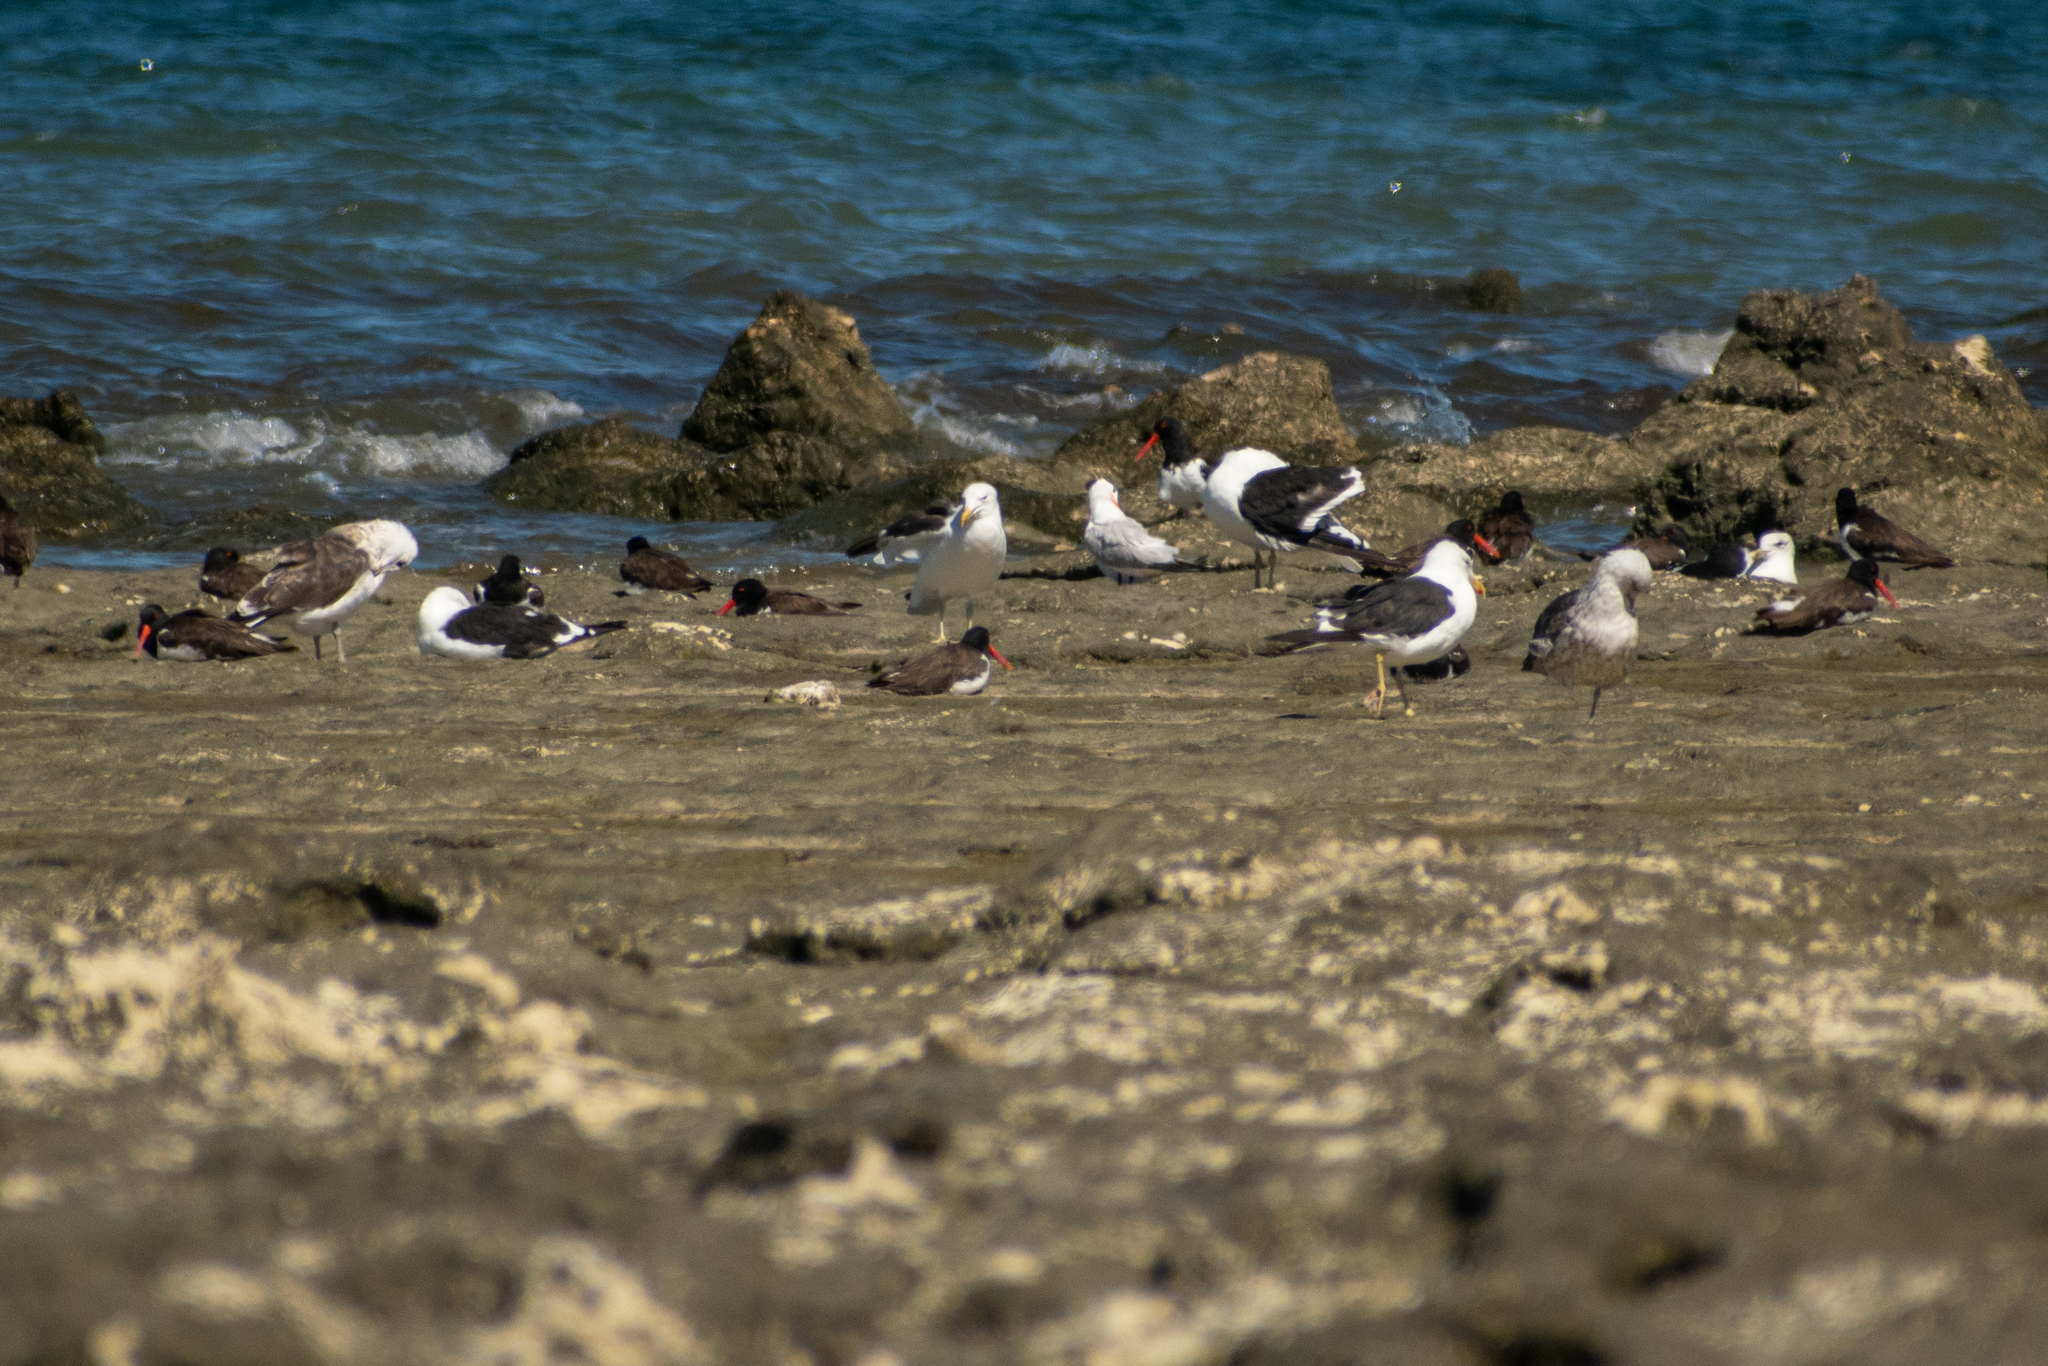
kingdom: Animalia
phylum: Chordata
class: Aves
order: Charadriiformes
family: Haematopodidae
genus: Haematopus
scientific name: Haematopus palliatus
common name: American oystercatcher
